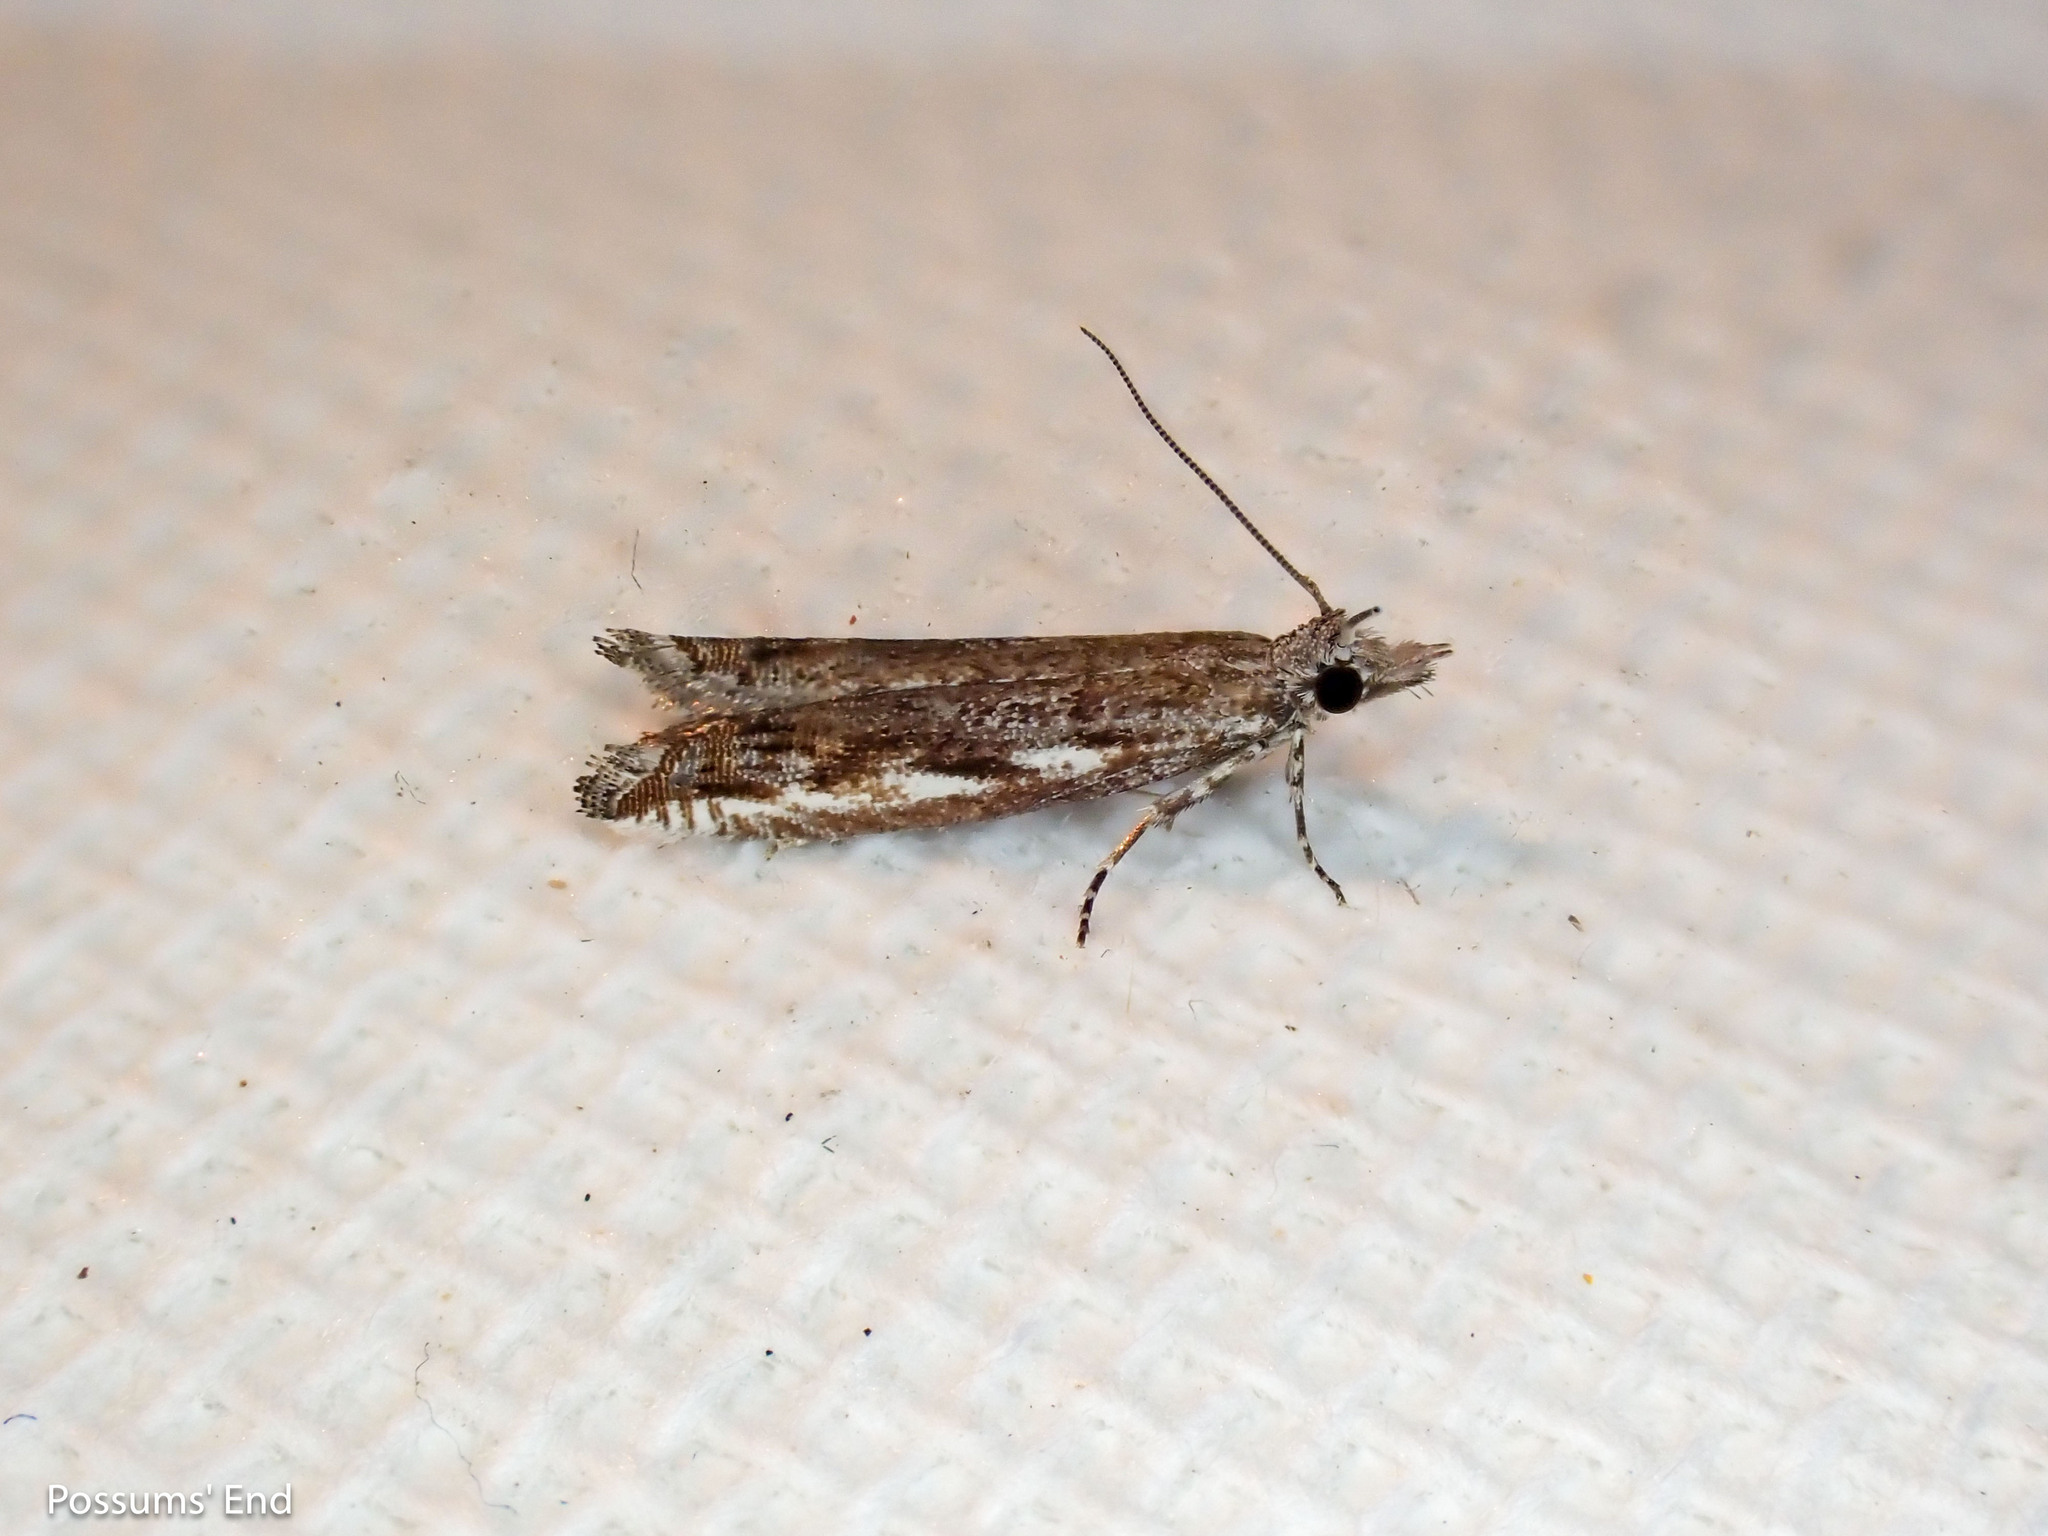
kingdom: Animalia
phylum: Arthropoda
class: Insecta
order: Lepidoptera
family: Tortricidae
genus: Holocola
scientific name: Holocola zopherana
